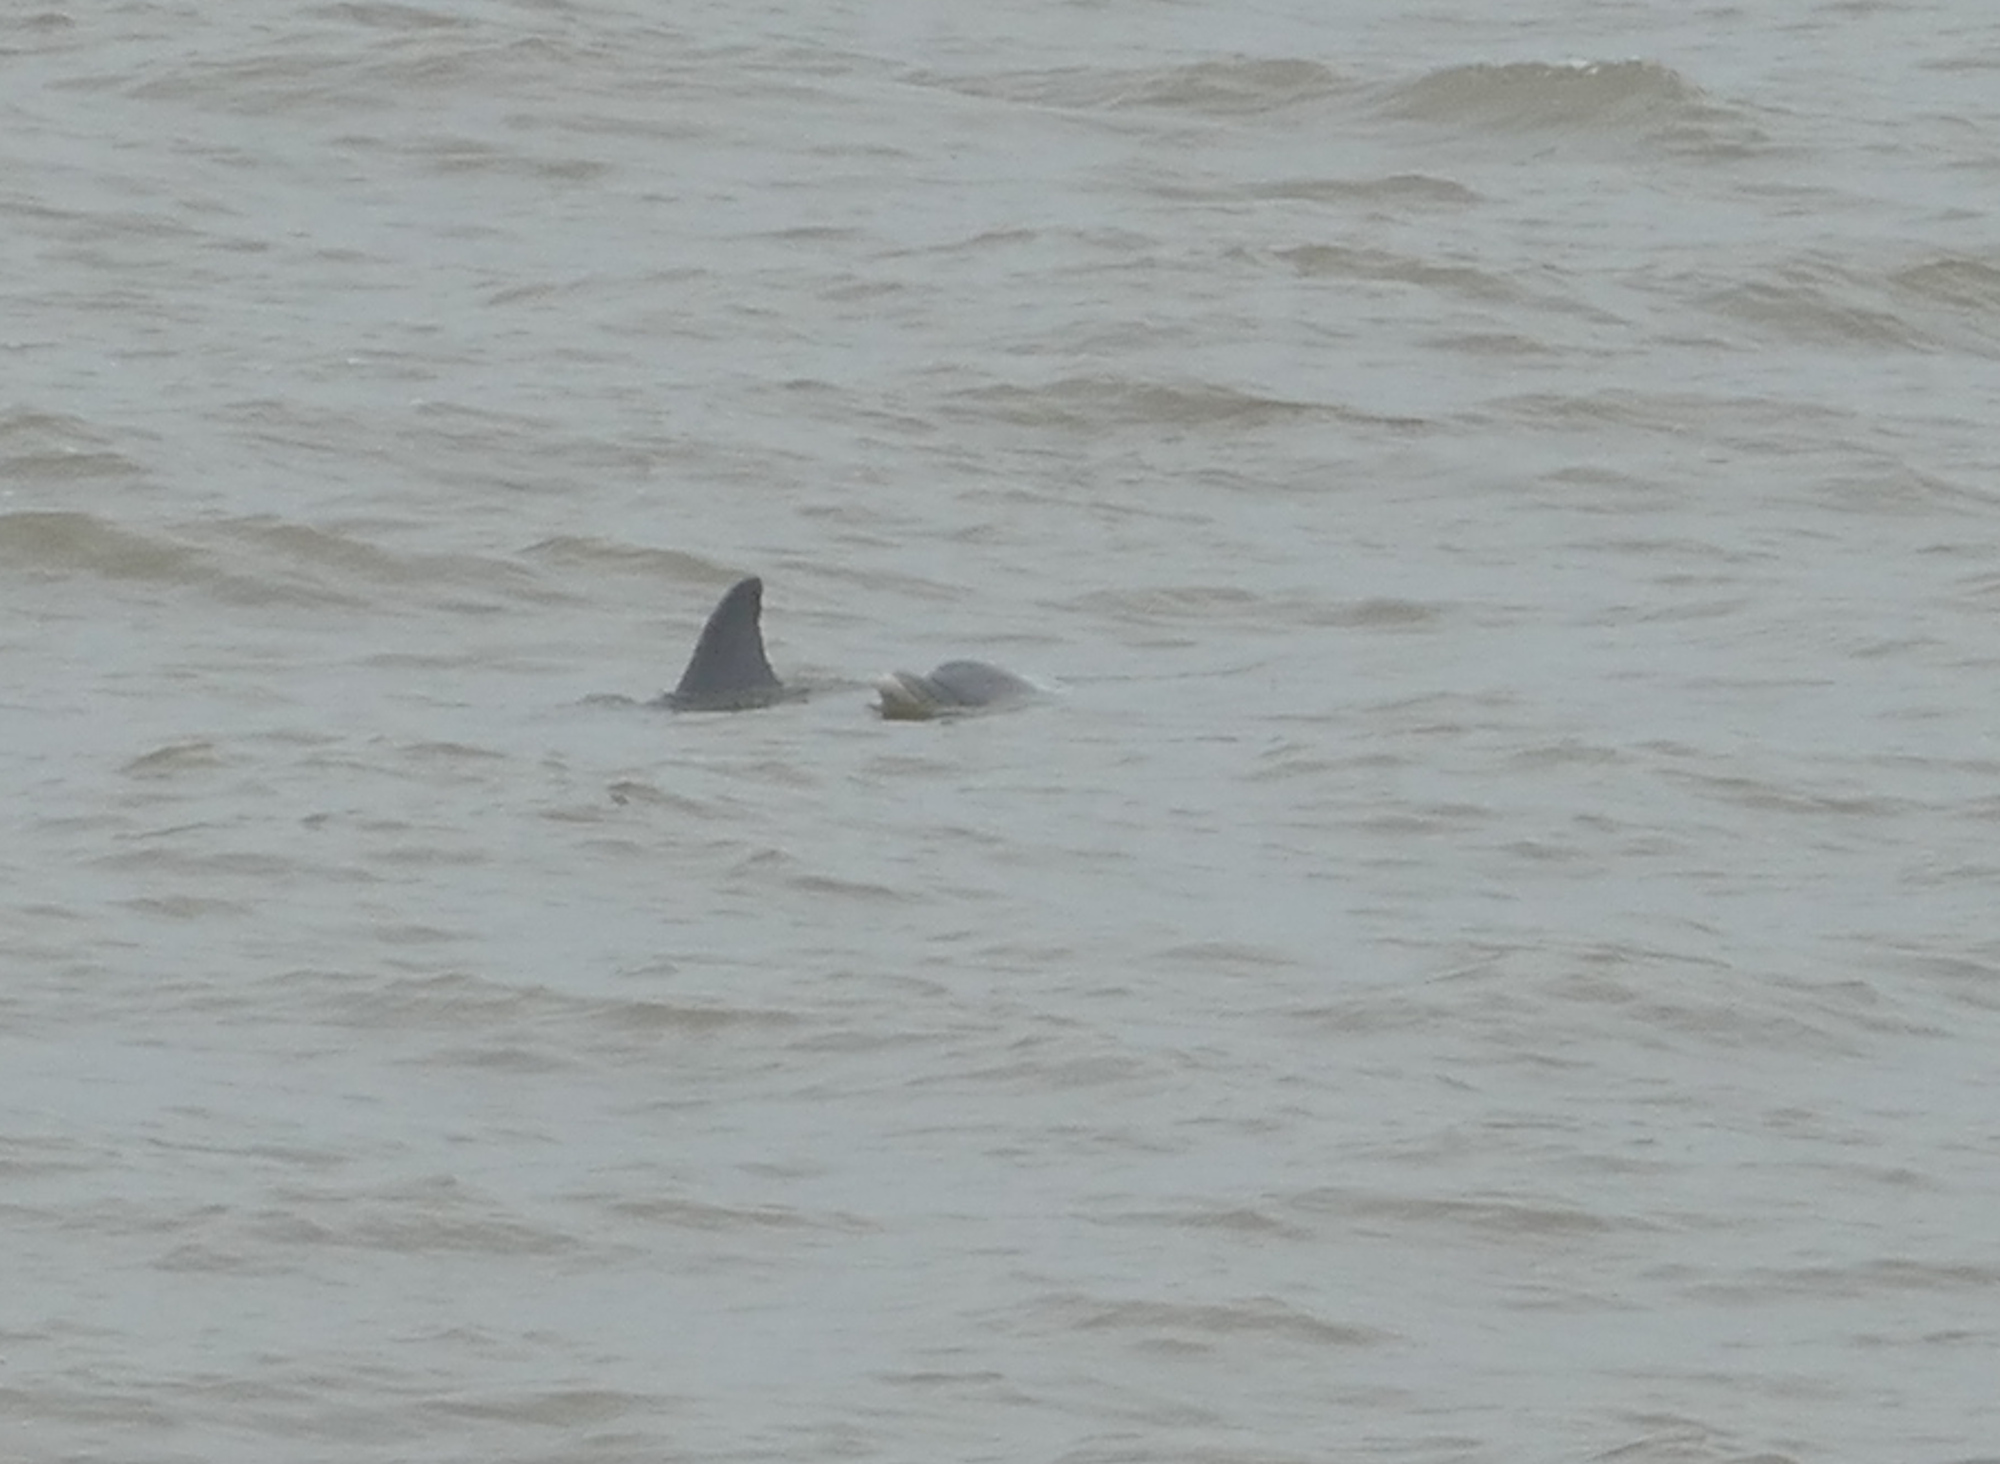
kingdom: Animalia
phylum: Chordata
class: Mammalia
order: Cetacea
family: Delphinidae
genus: Tursiops
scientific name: Tursiops truncatus
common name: Bottlenose dolphin
